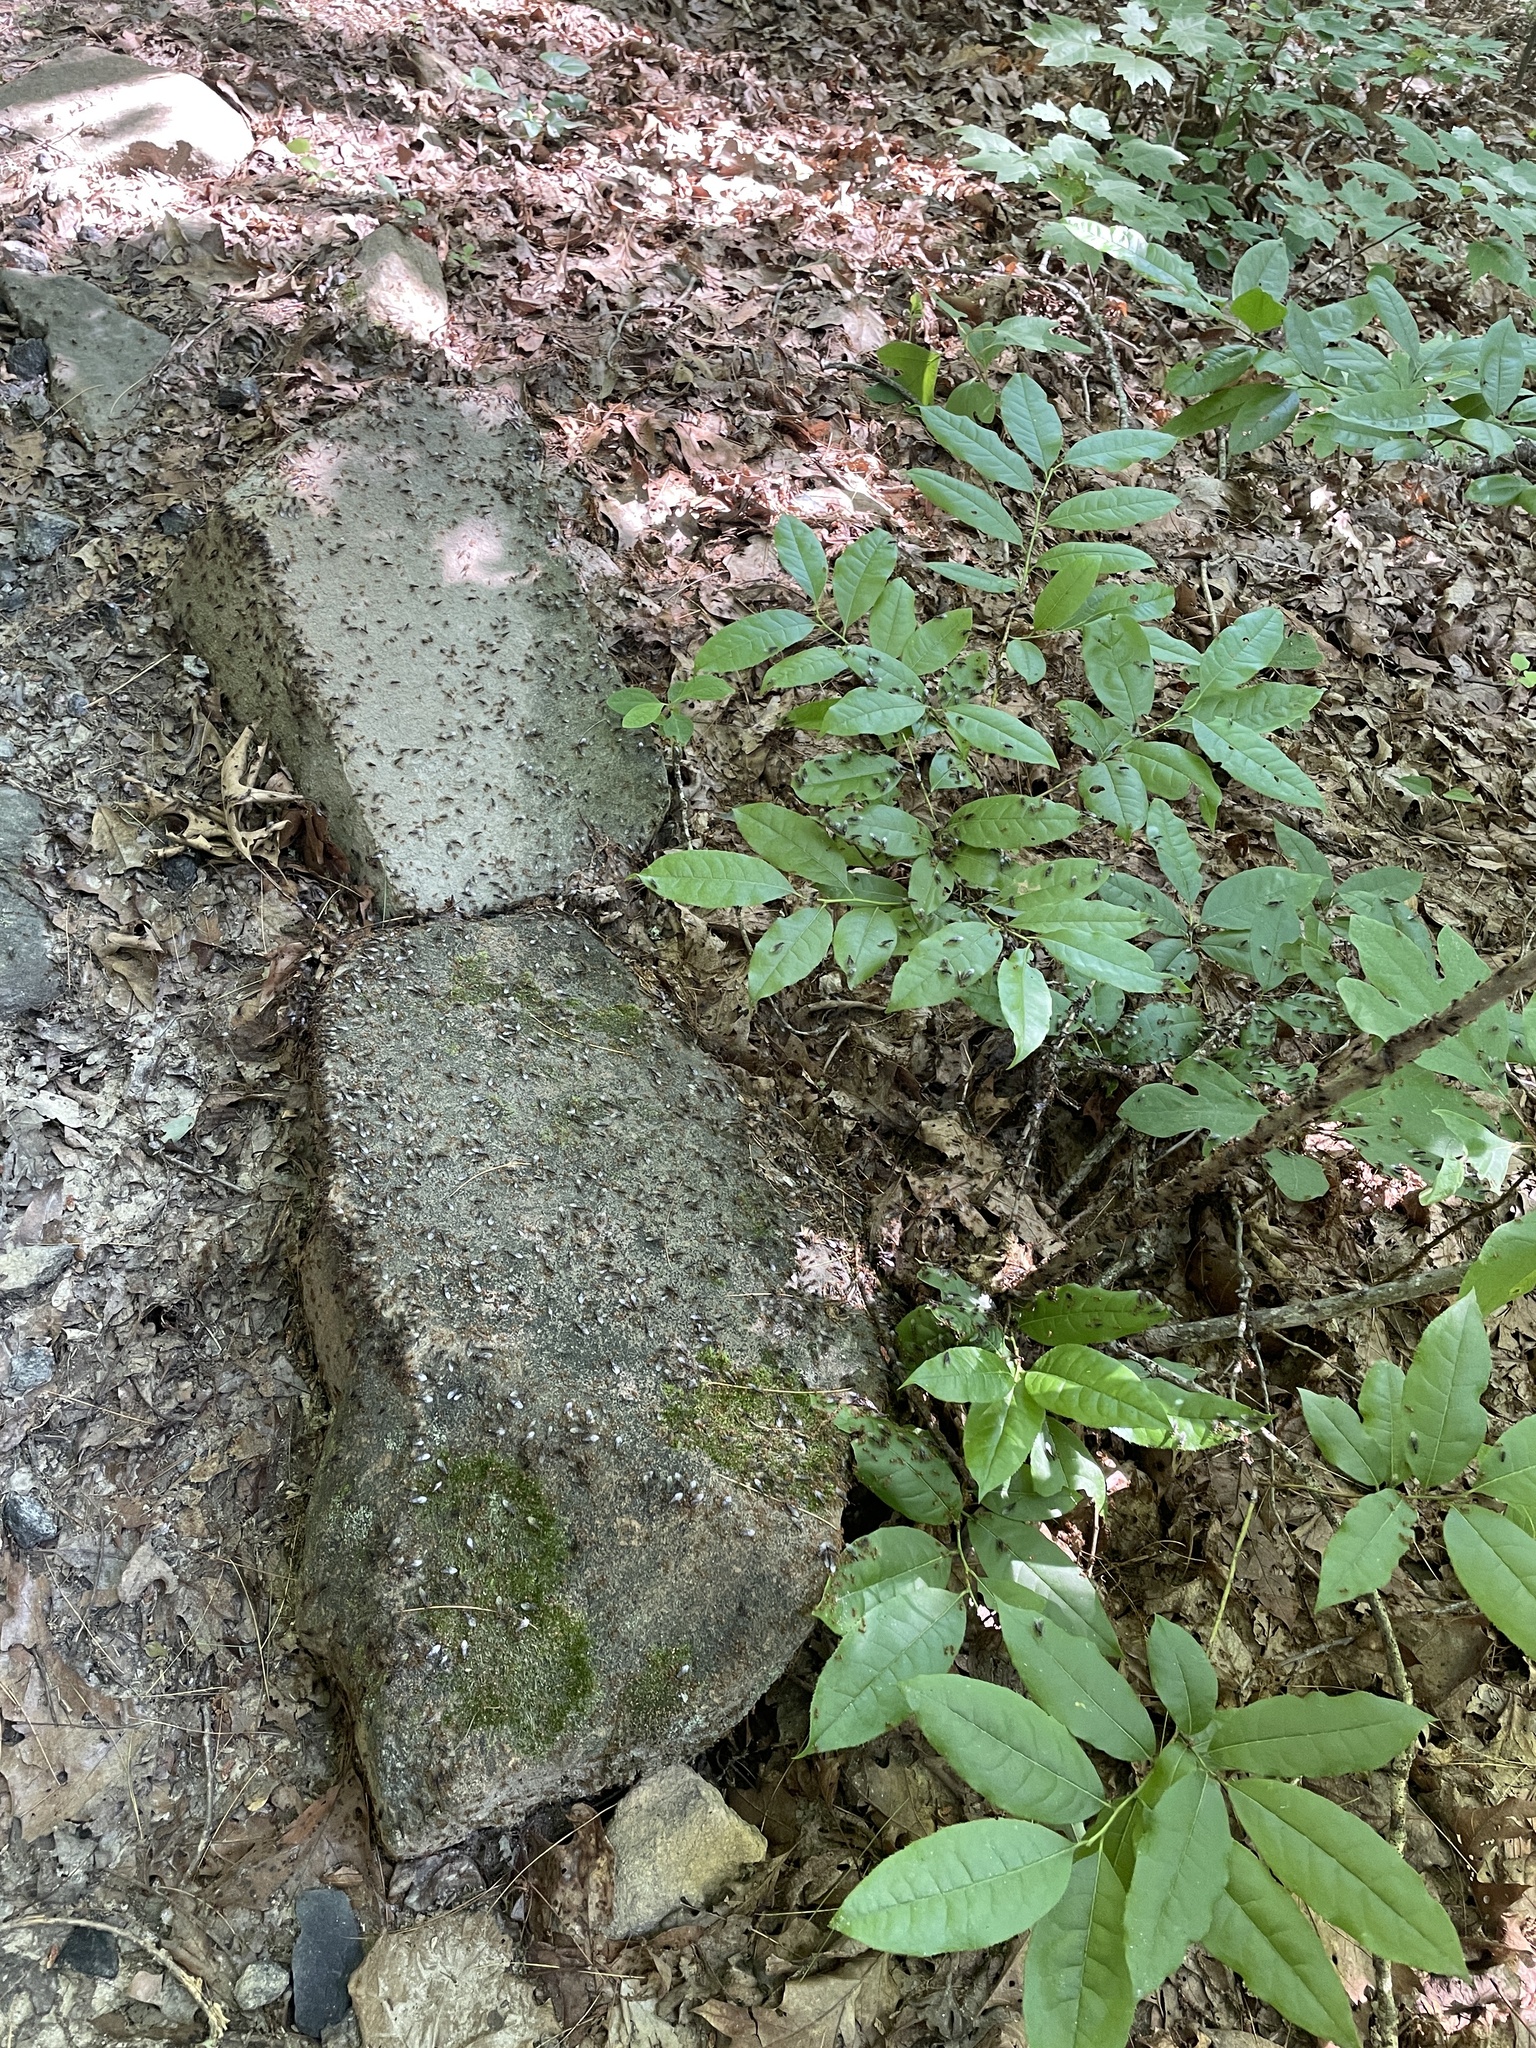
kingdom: Animalia
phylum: Arthropoda
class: Insecta
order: Hymenoptera
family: Formicidae
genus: Lasius
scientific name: Lasius aphidicola
